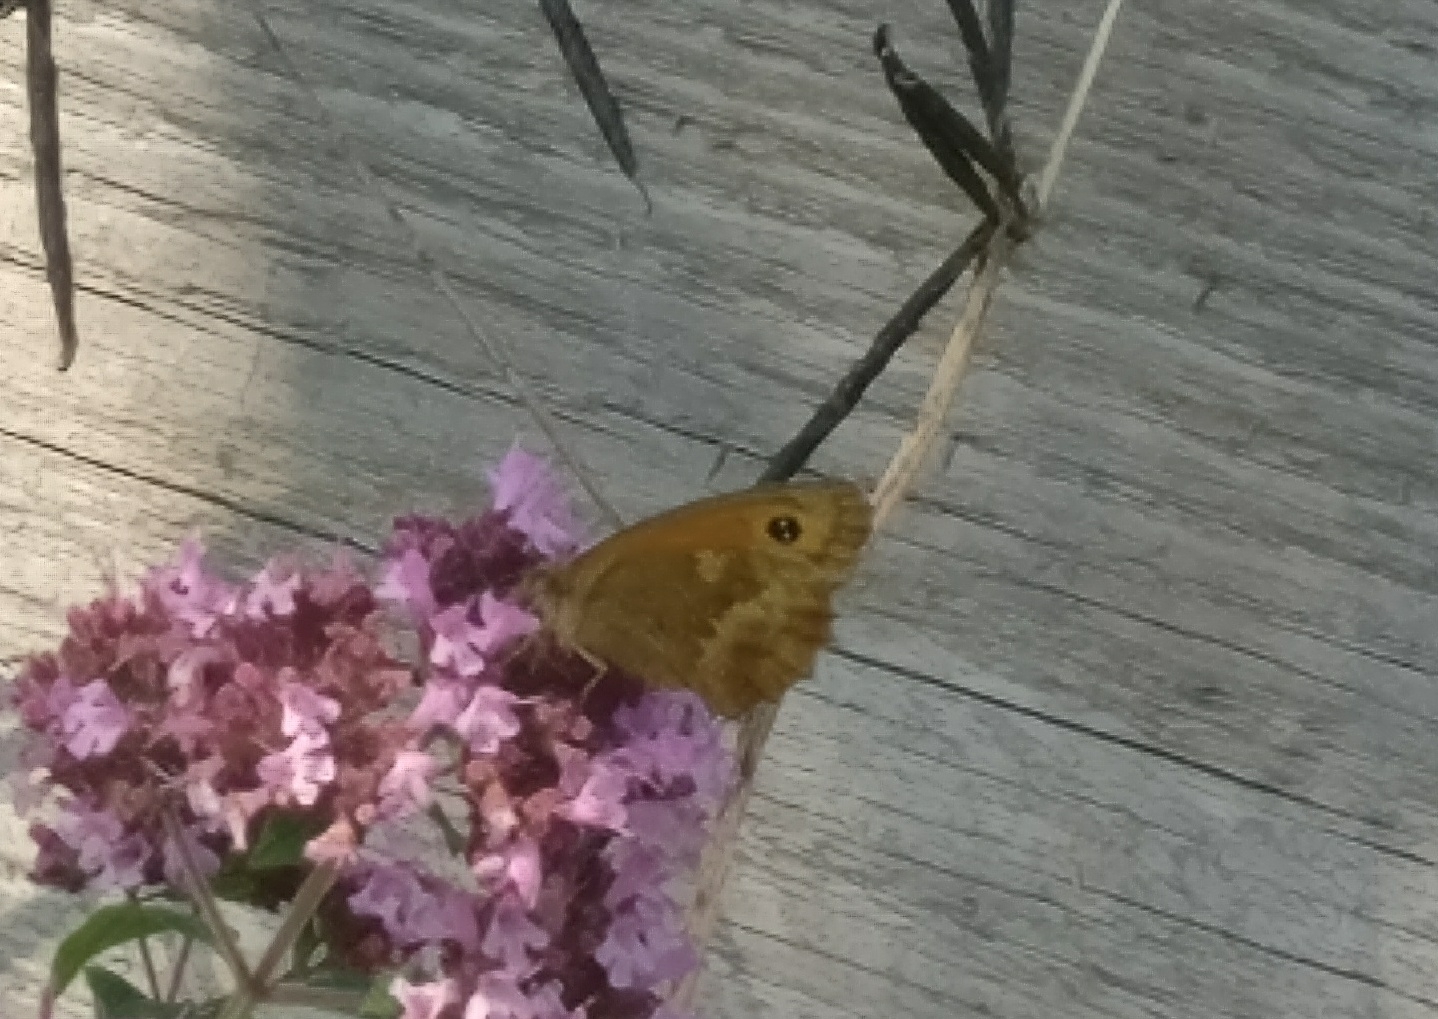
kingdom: Animalia
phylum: Arthropoda
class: Insecta
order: Lepidoptera
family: Nymphalidae
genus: Pyronia
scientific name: Pyronia tithonus
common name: Gatekeeper
